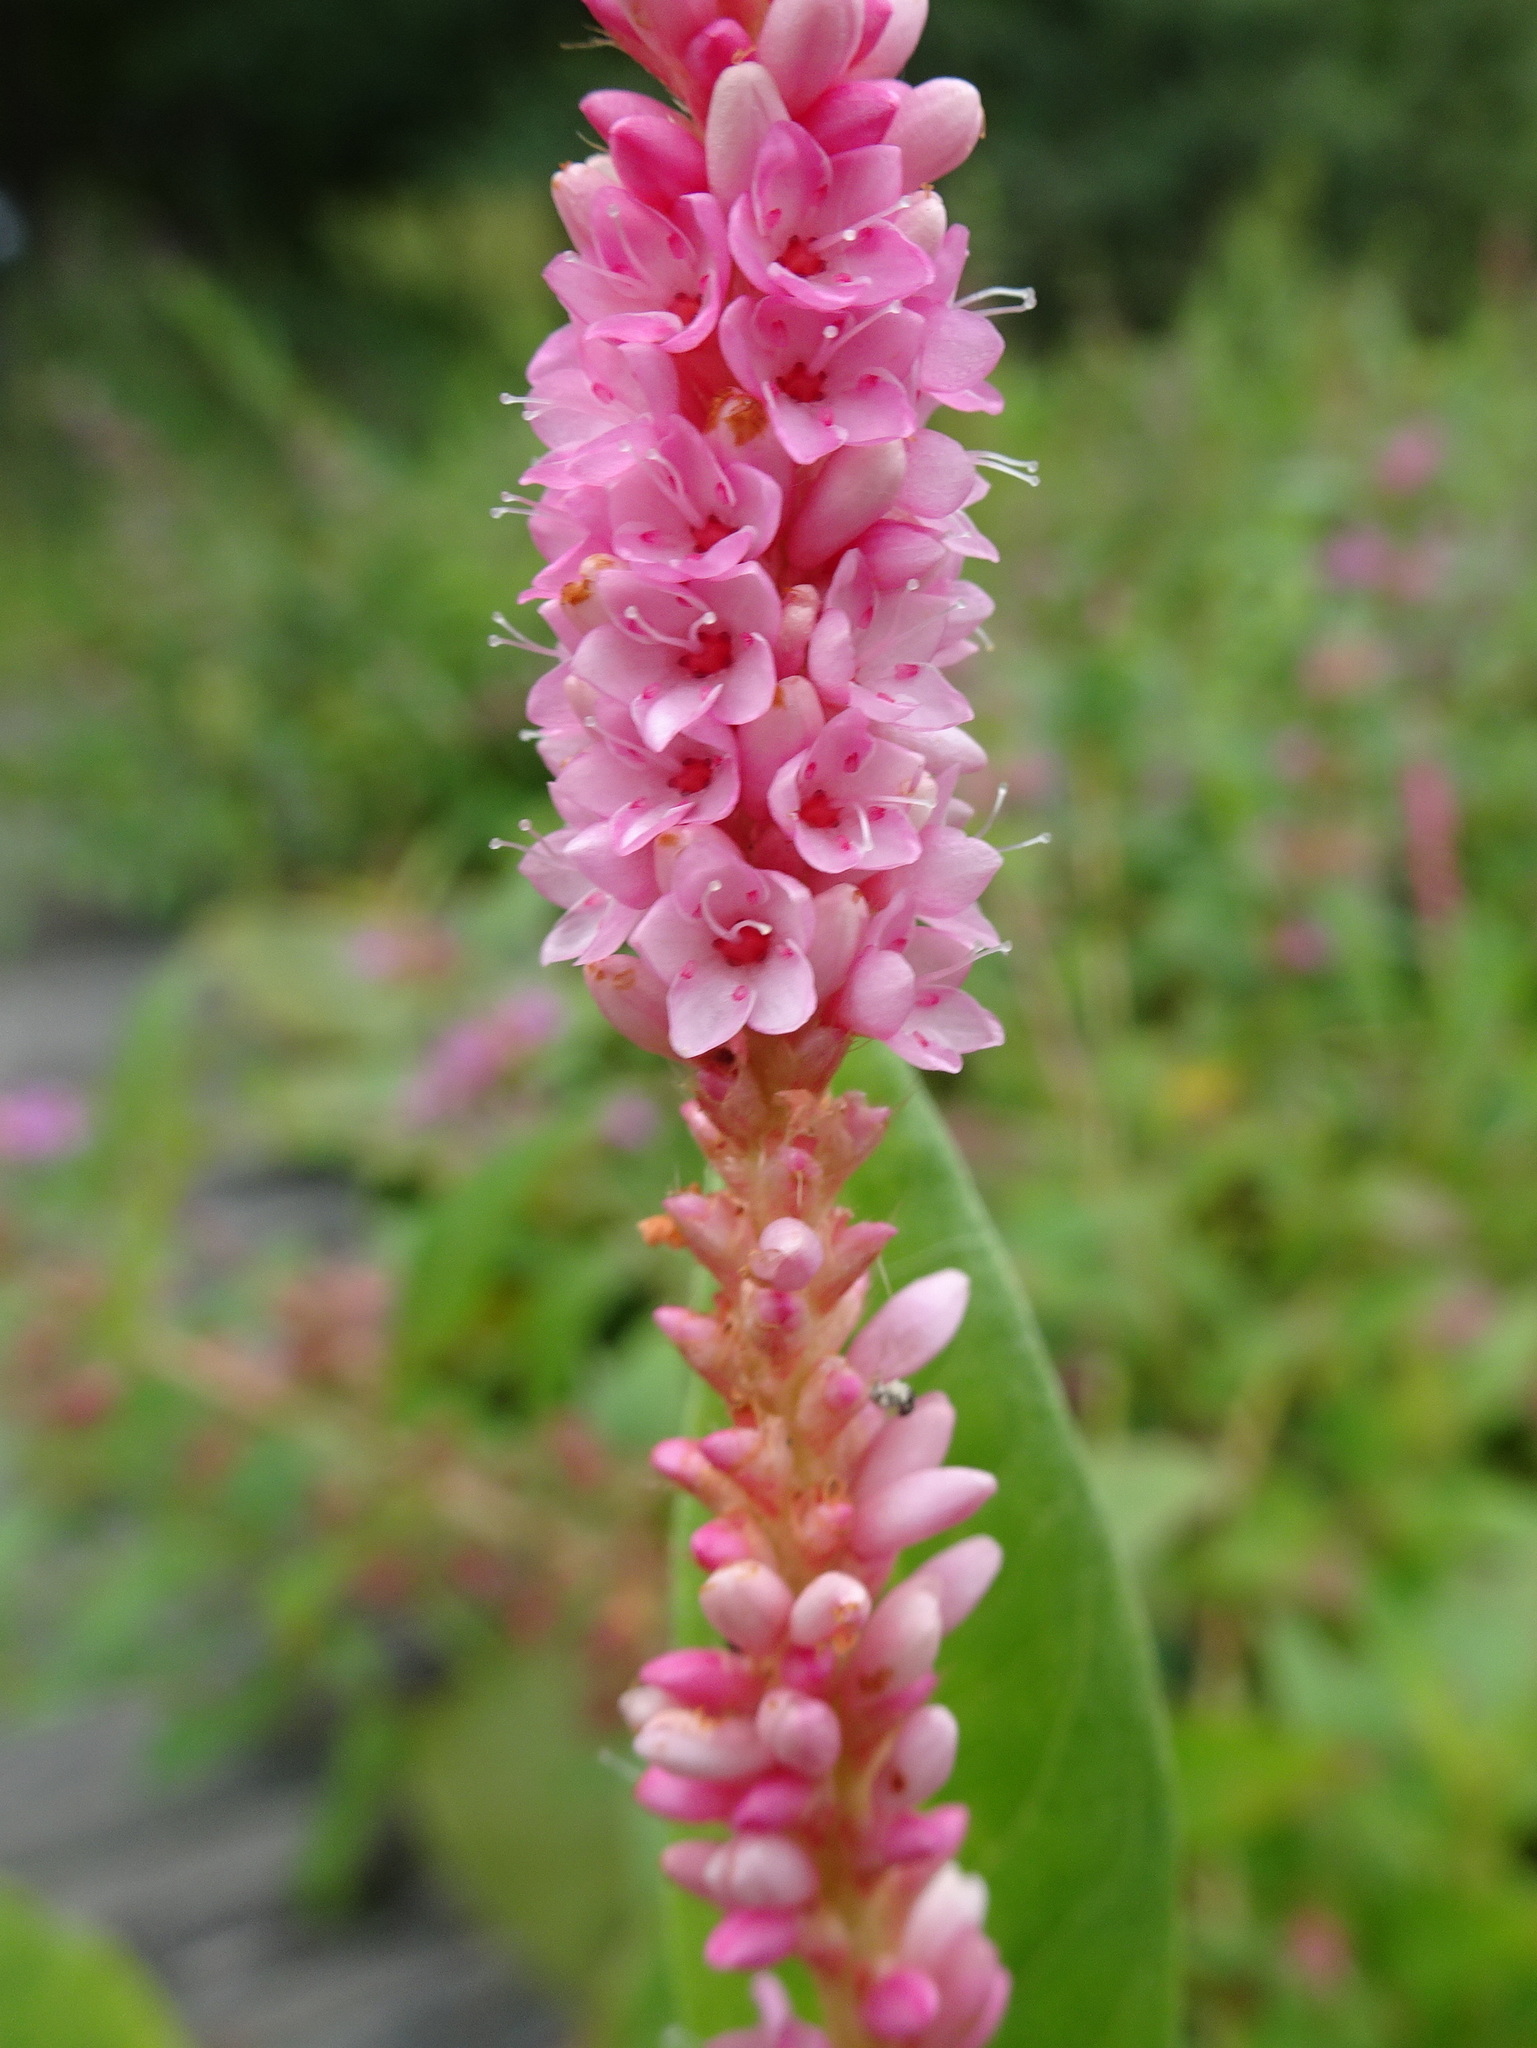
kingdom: Plantae
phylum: Tracheophyta
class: Magnoliopsida
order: Caryophyllales
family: Polygonaceae
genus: Persicaria
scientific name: Persicaria amphibia
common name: Amphibious bistort
